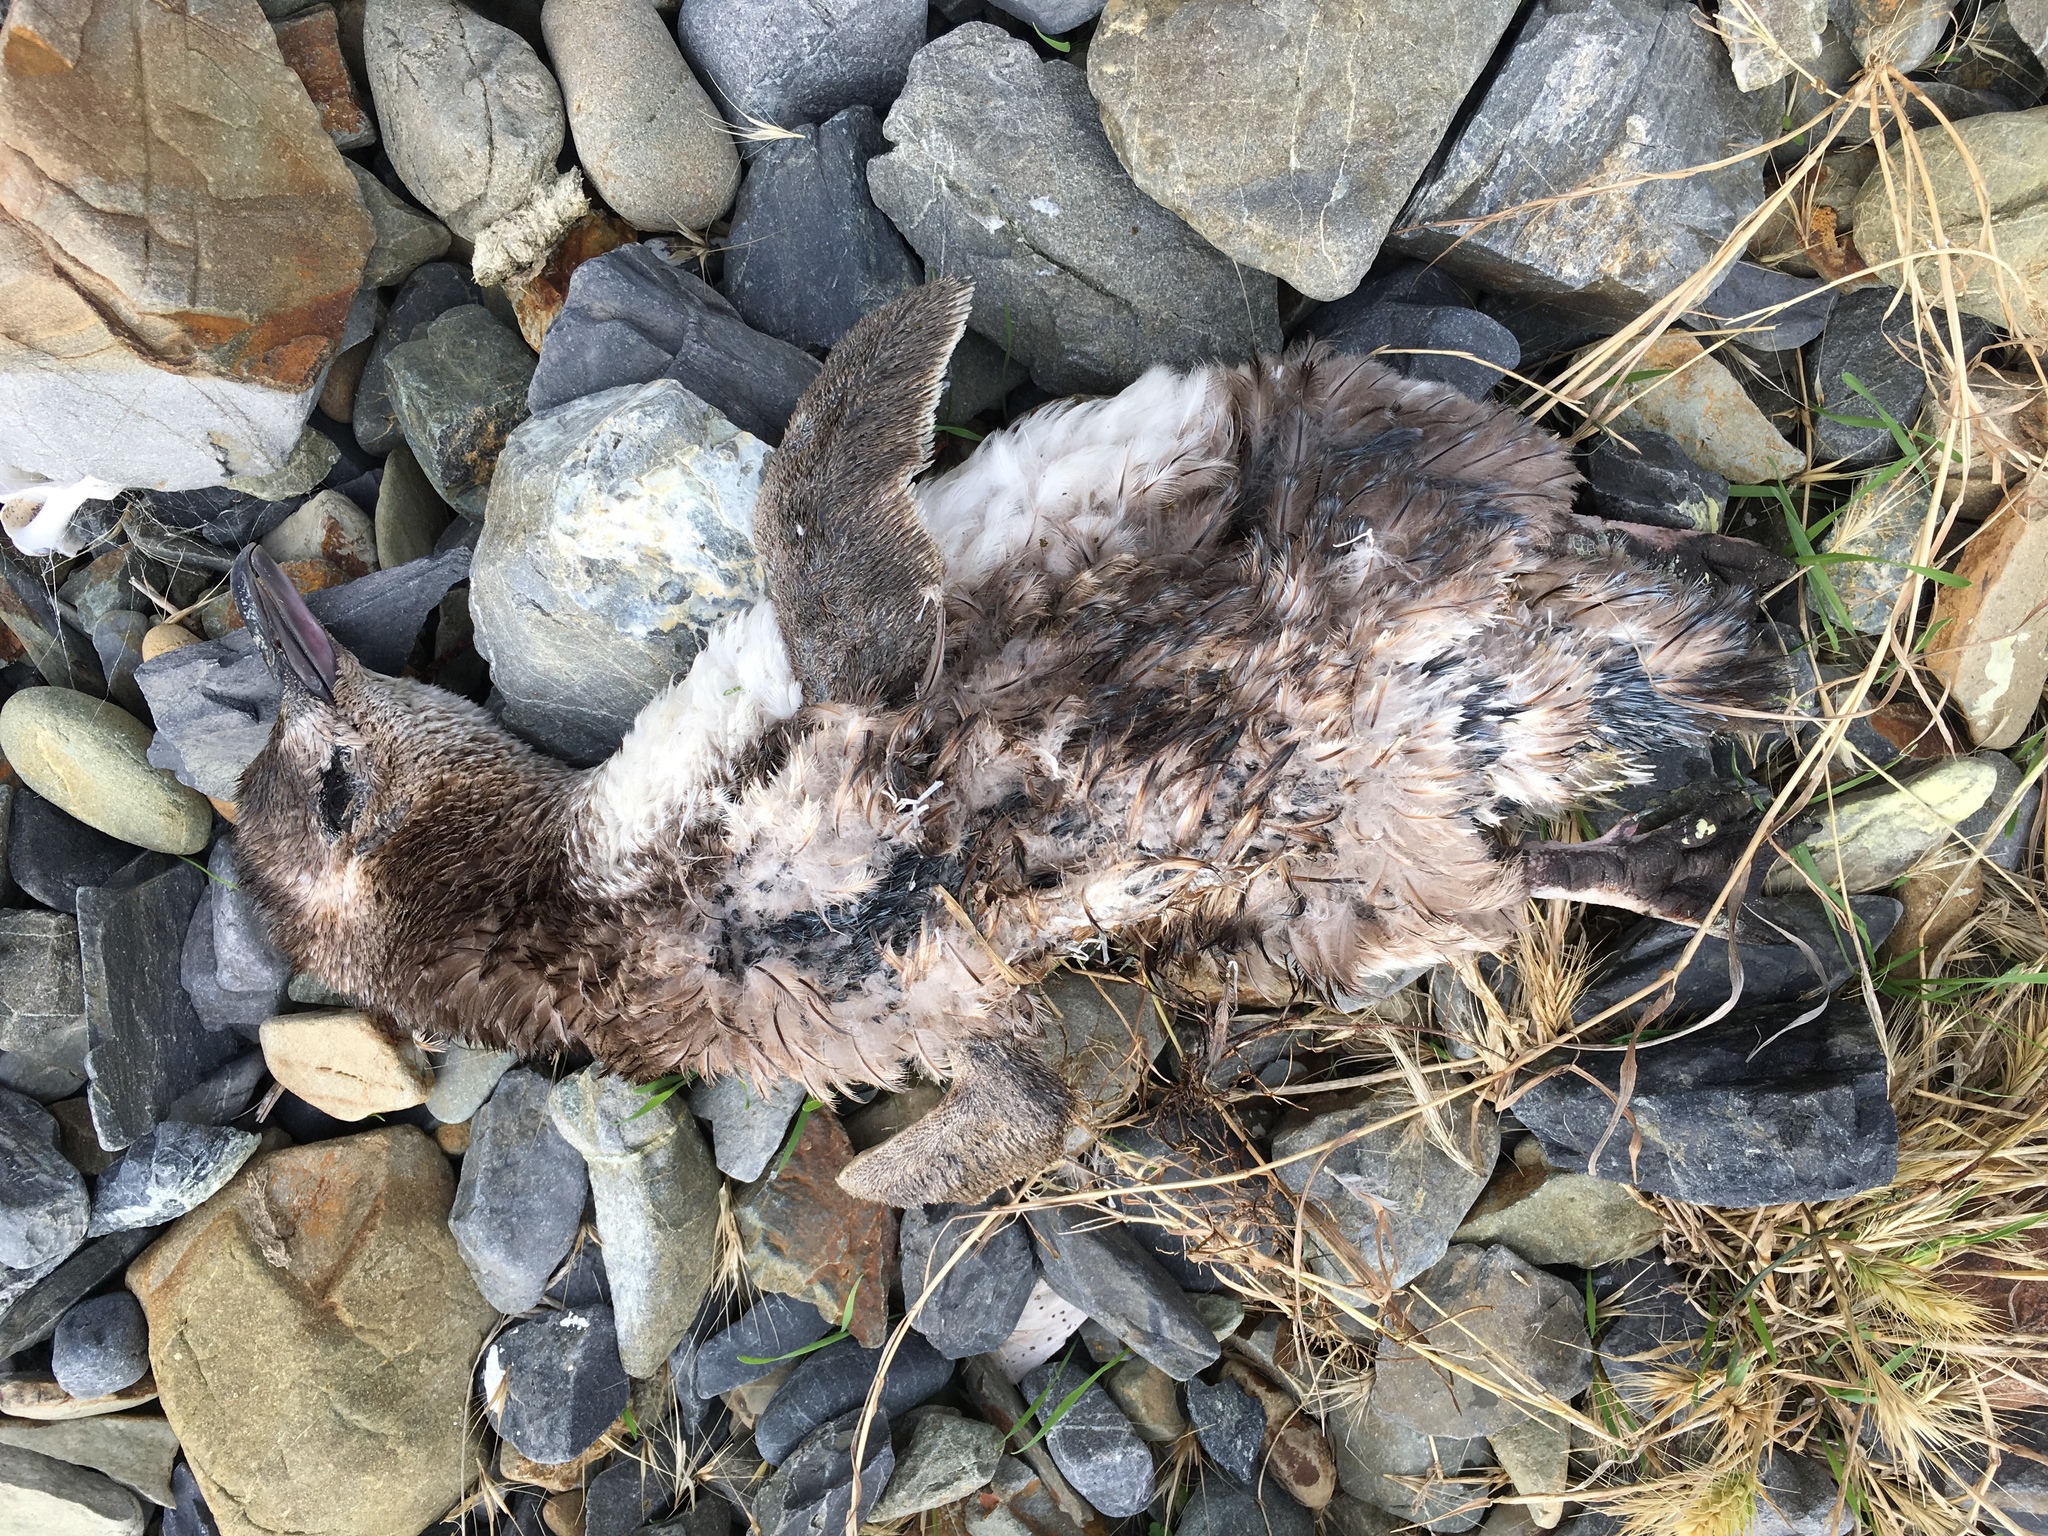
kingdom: Animalia
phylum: Chordata
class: Aves
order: Sphenisciformes
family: Spheniscidae
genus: Eudyptula
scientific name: Eudyptula minor
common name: Little penguin
